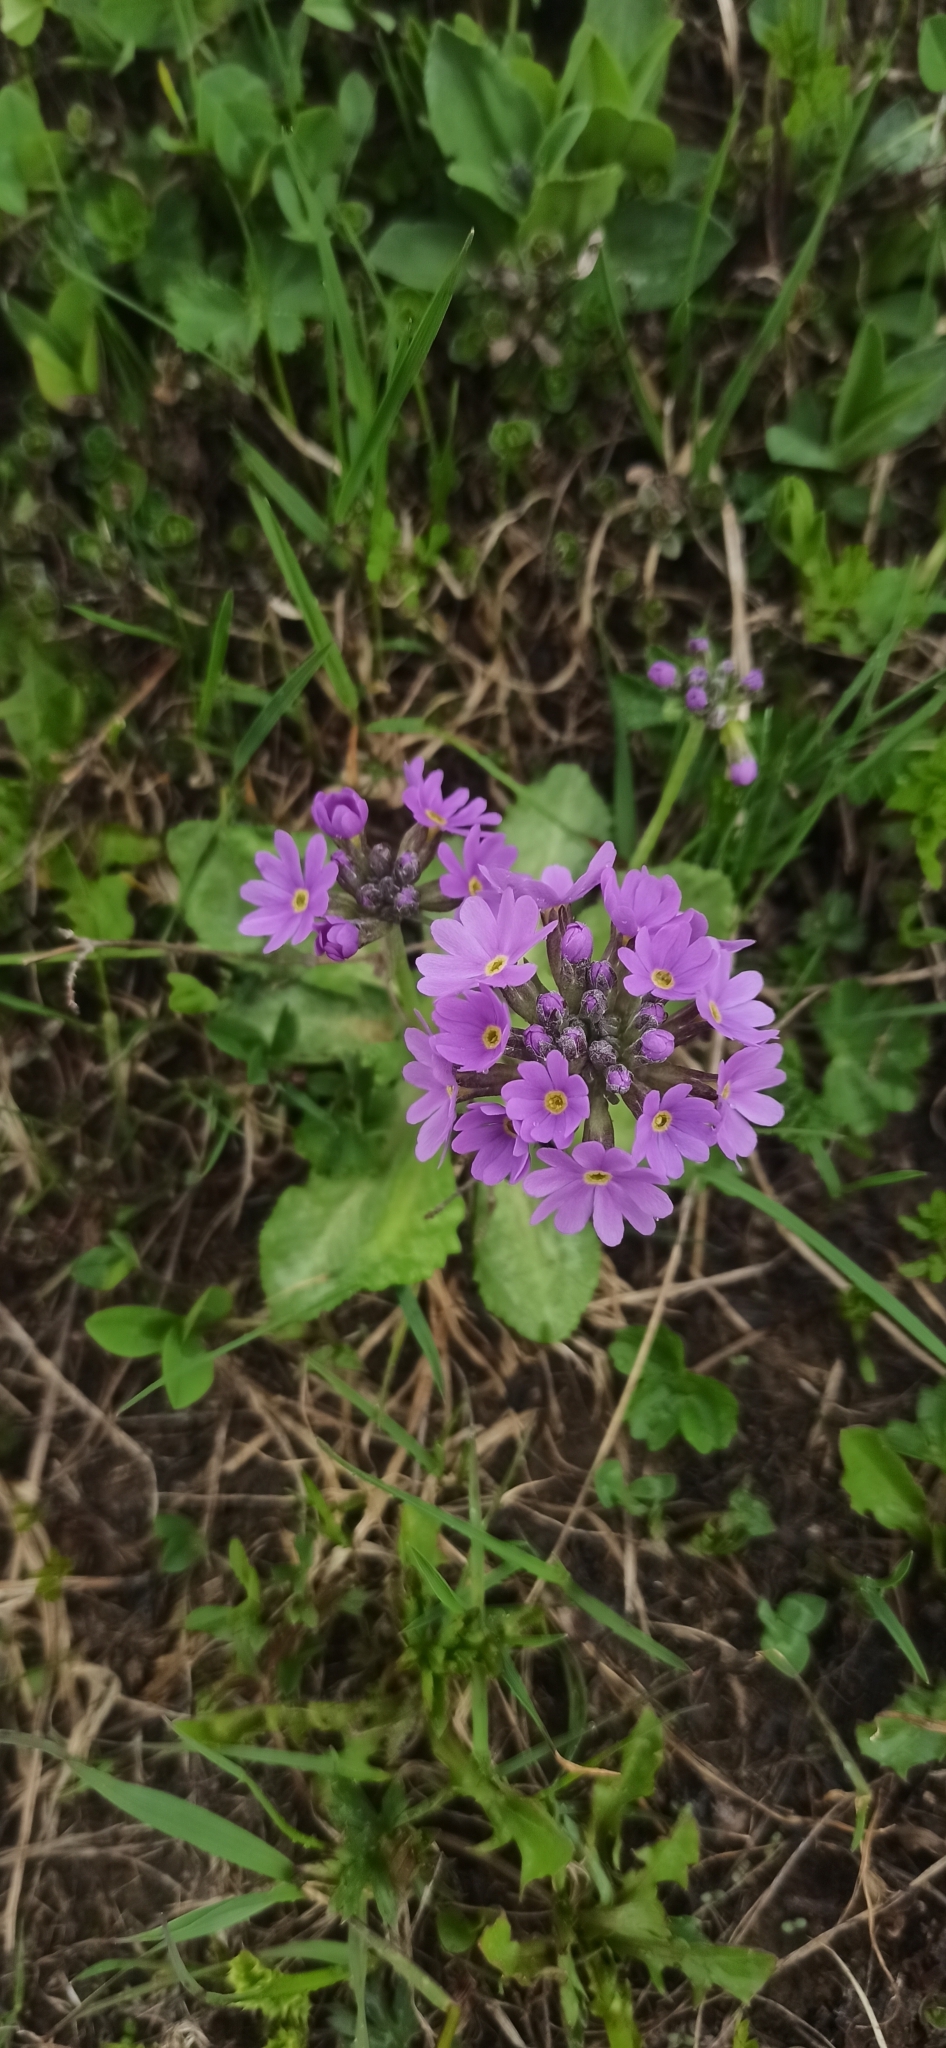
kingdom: Plantae
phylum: Tracheophyta
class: Magnoliopsida
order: Ericales
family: Primulaceae
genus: Primula
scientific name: Primula algida
